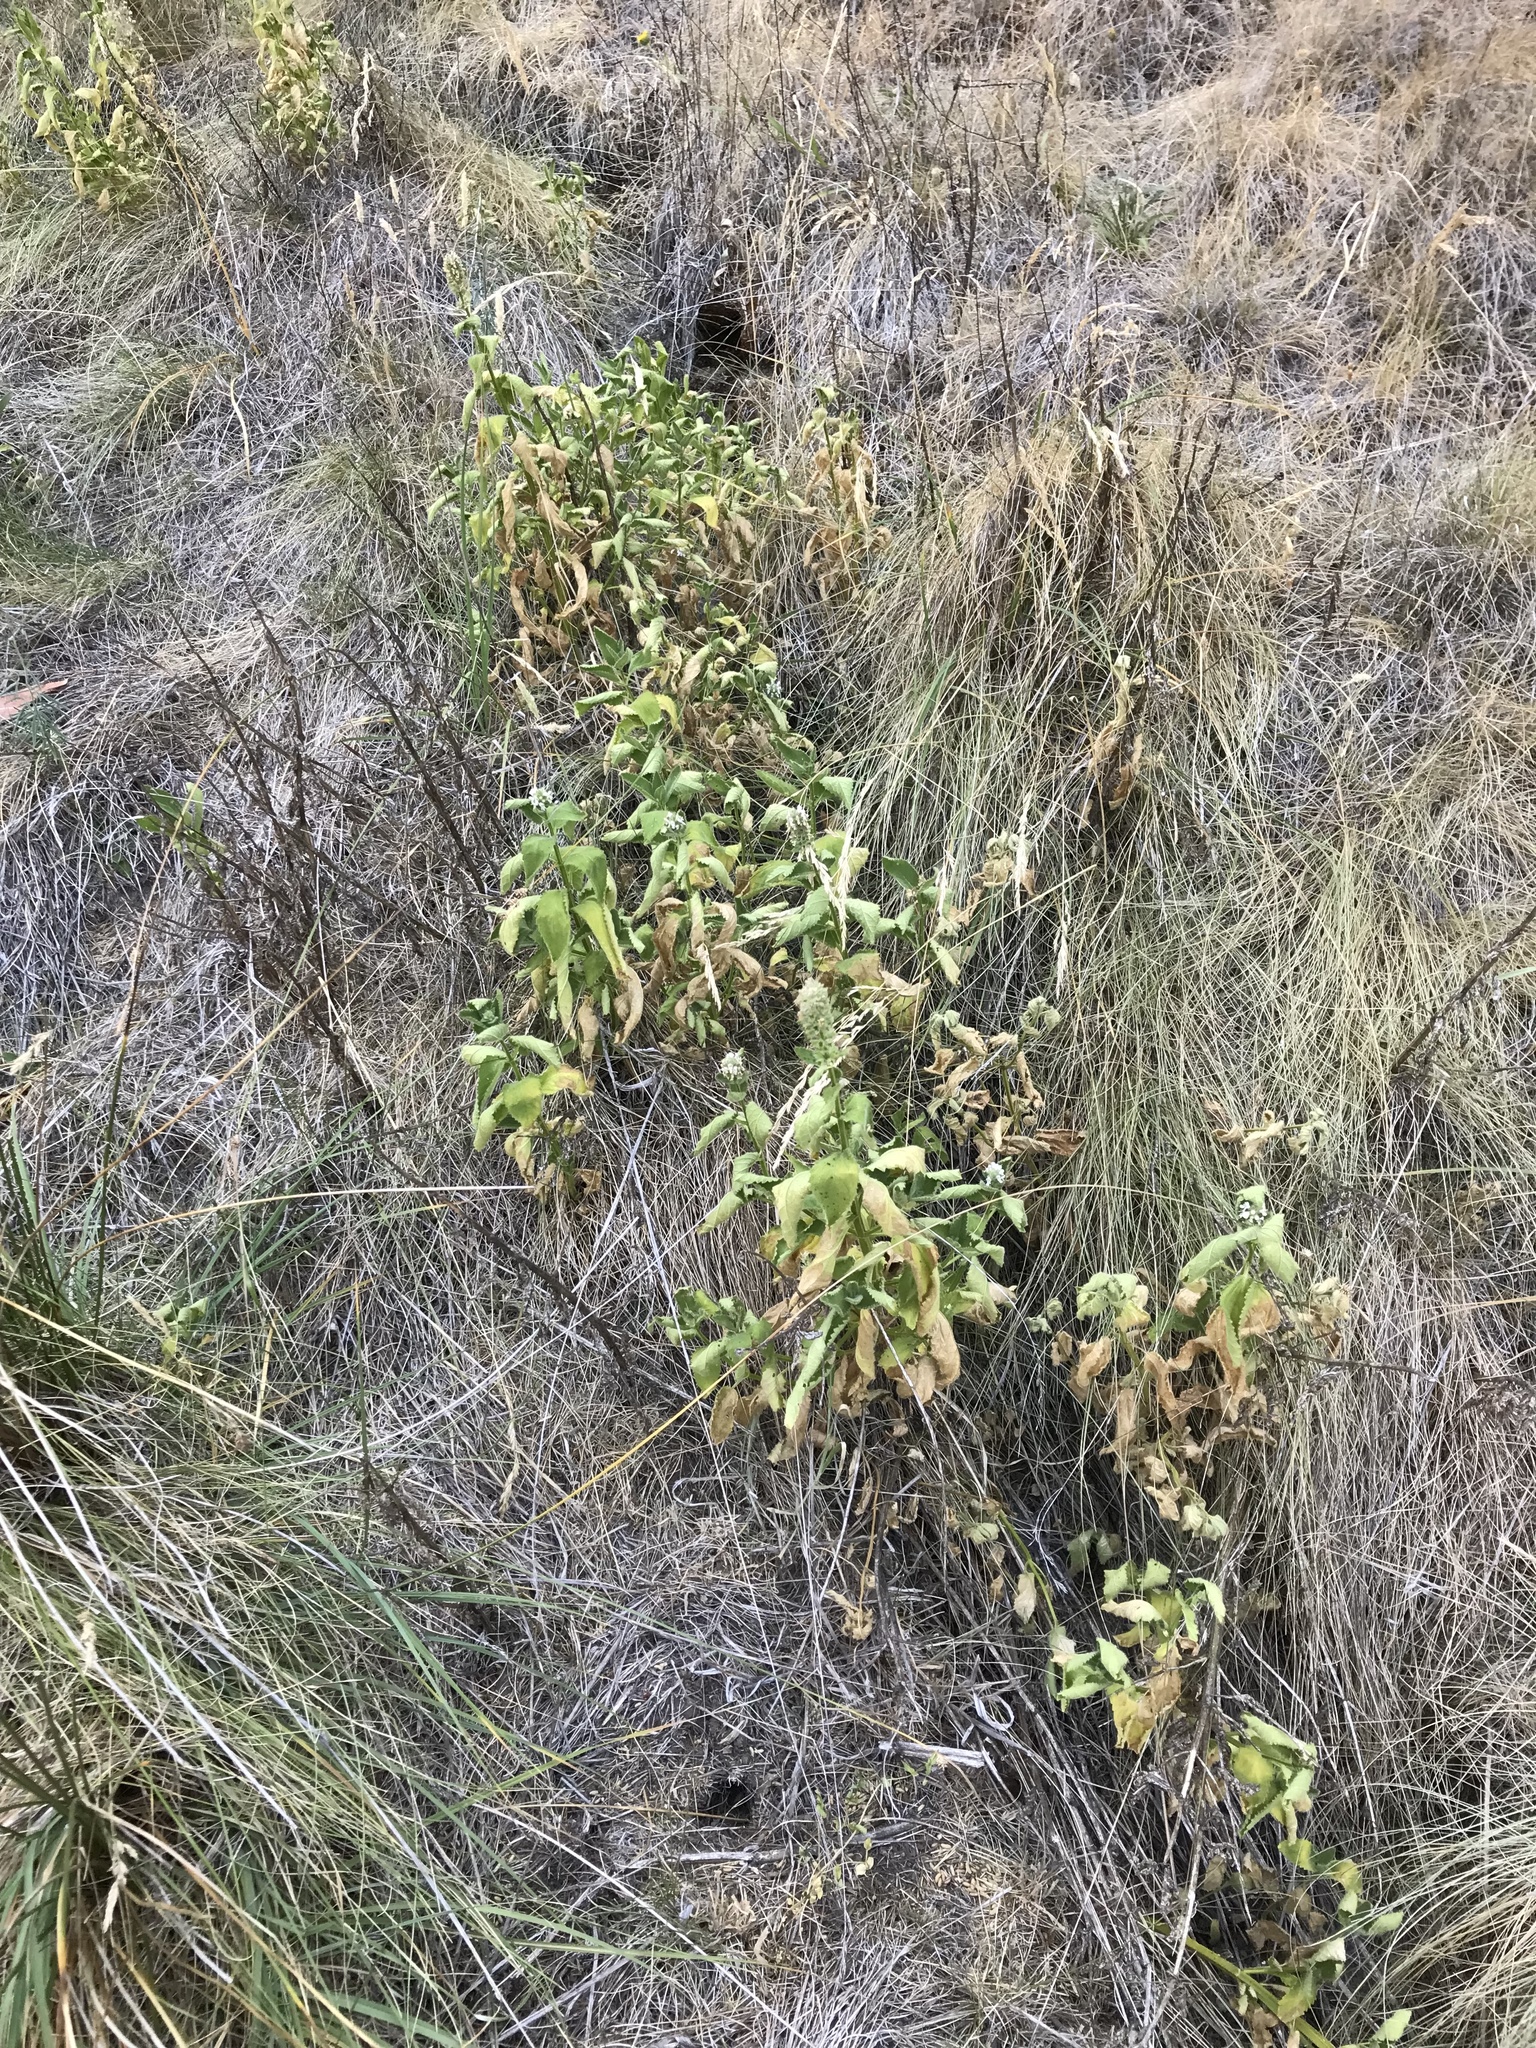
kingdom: Plantae
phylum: Tracheophyta
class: Magnoliopsida
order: Lamiales
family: Lamiaceae
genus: Stachys
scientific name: Stachys pycnantha
